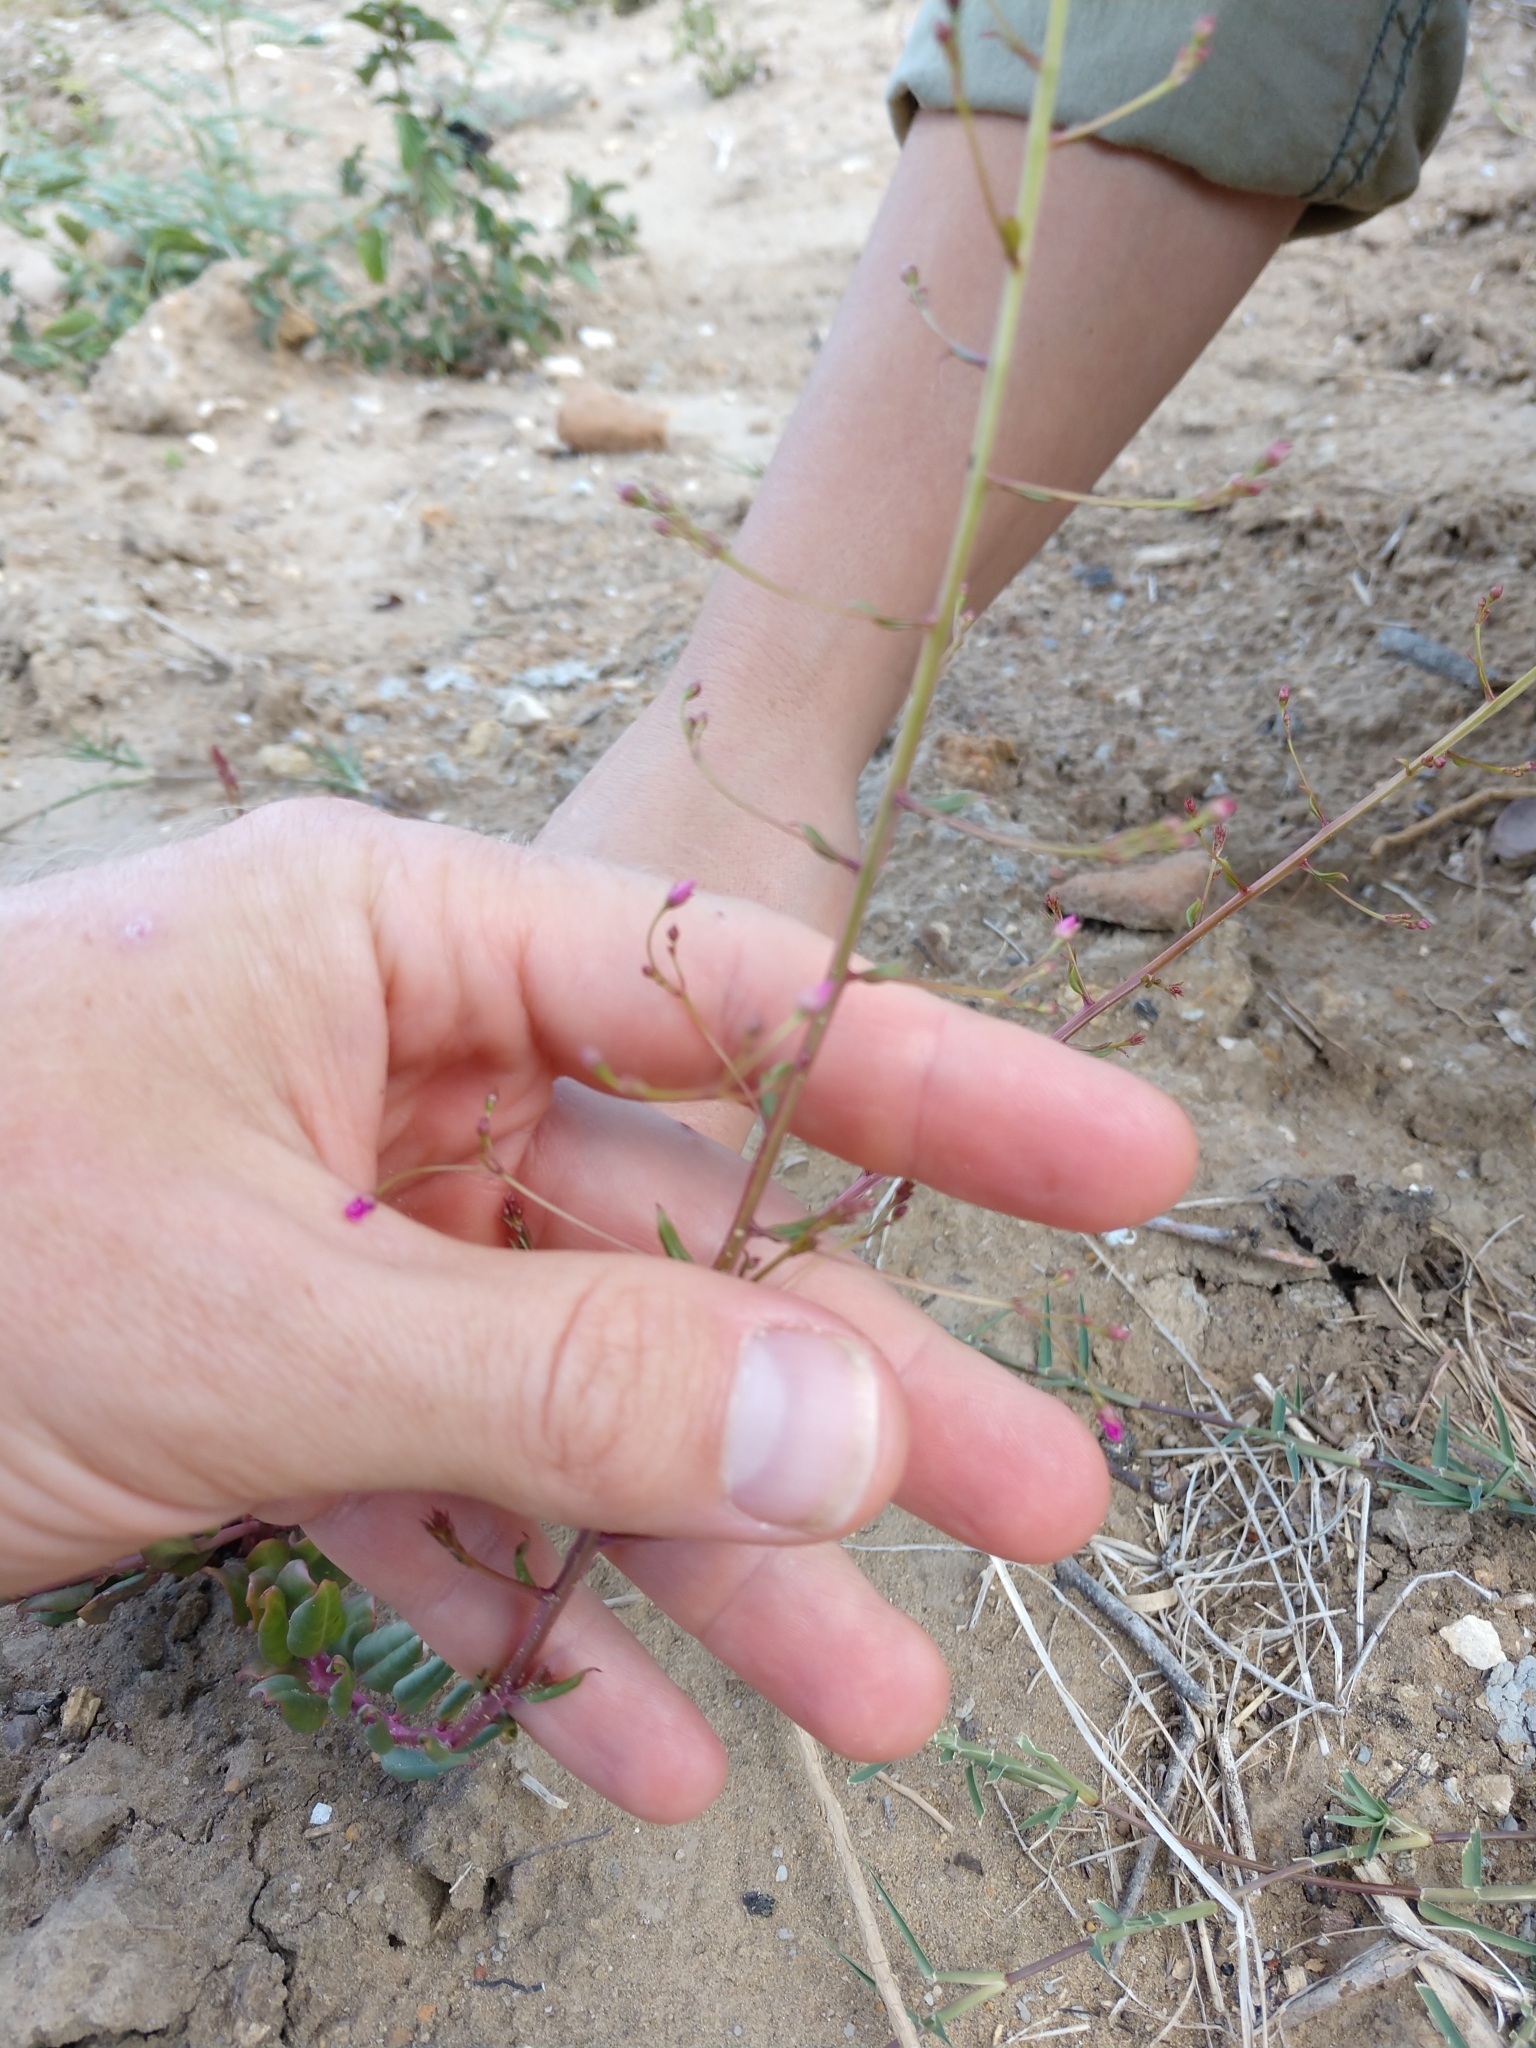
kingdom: Plantae
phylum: Tracheophyta
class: Magnoliopsida
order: Caryophyllales
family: Talinaceae
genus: Talinum
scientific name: Talinum paniculatum
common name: Jewels of opar
